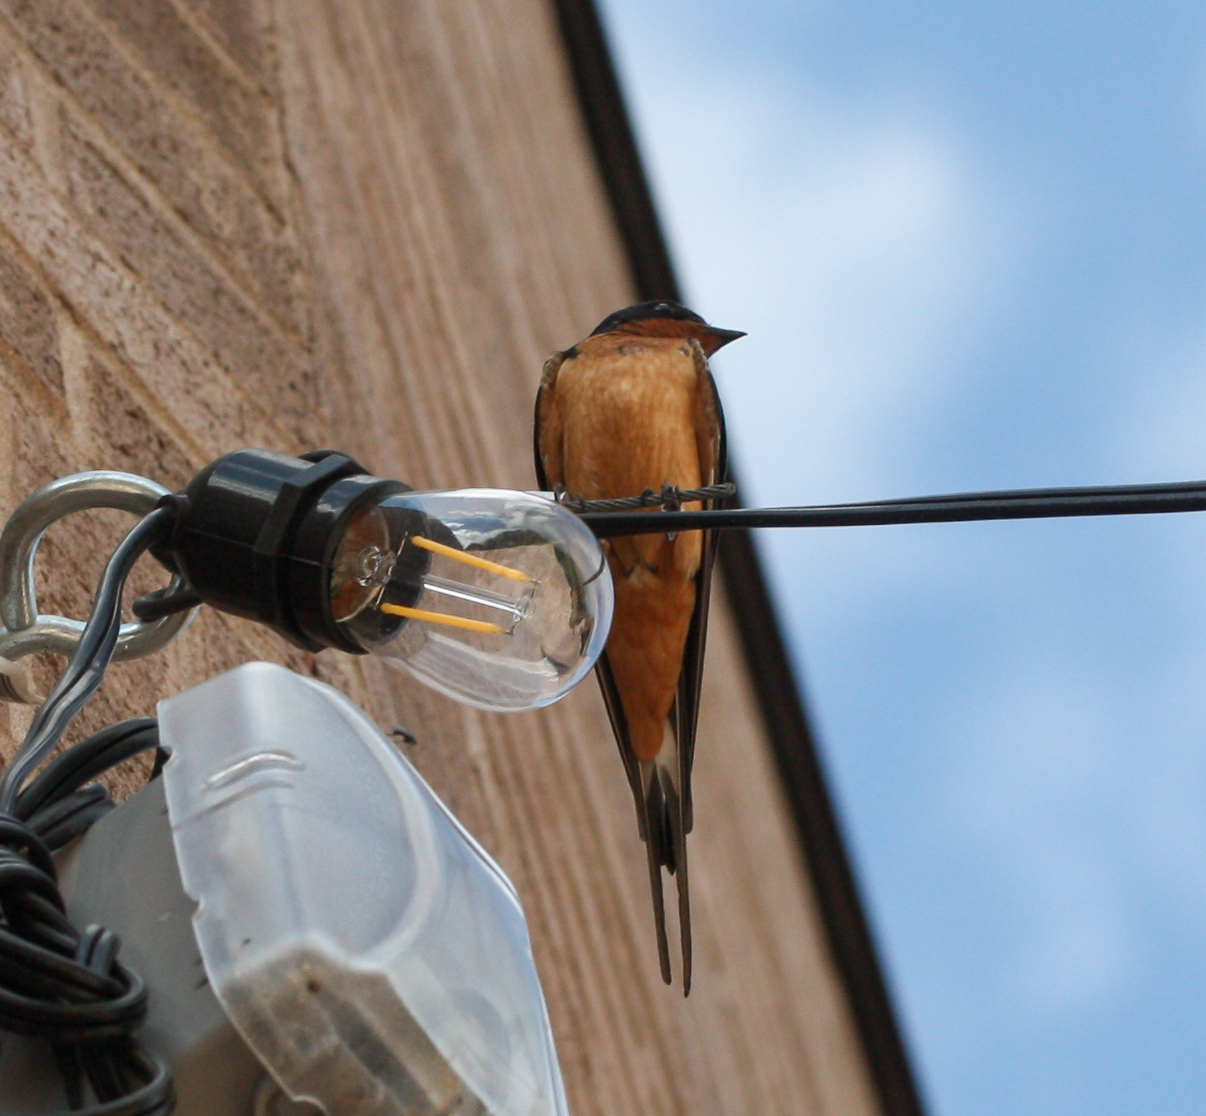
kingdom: Animalia
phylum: Chordata
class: Aves
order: Passeriformes
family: Hirundinidae
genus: Hirundo
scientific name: Hirundo rustica
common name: Barn swallow
